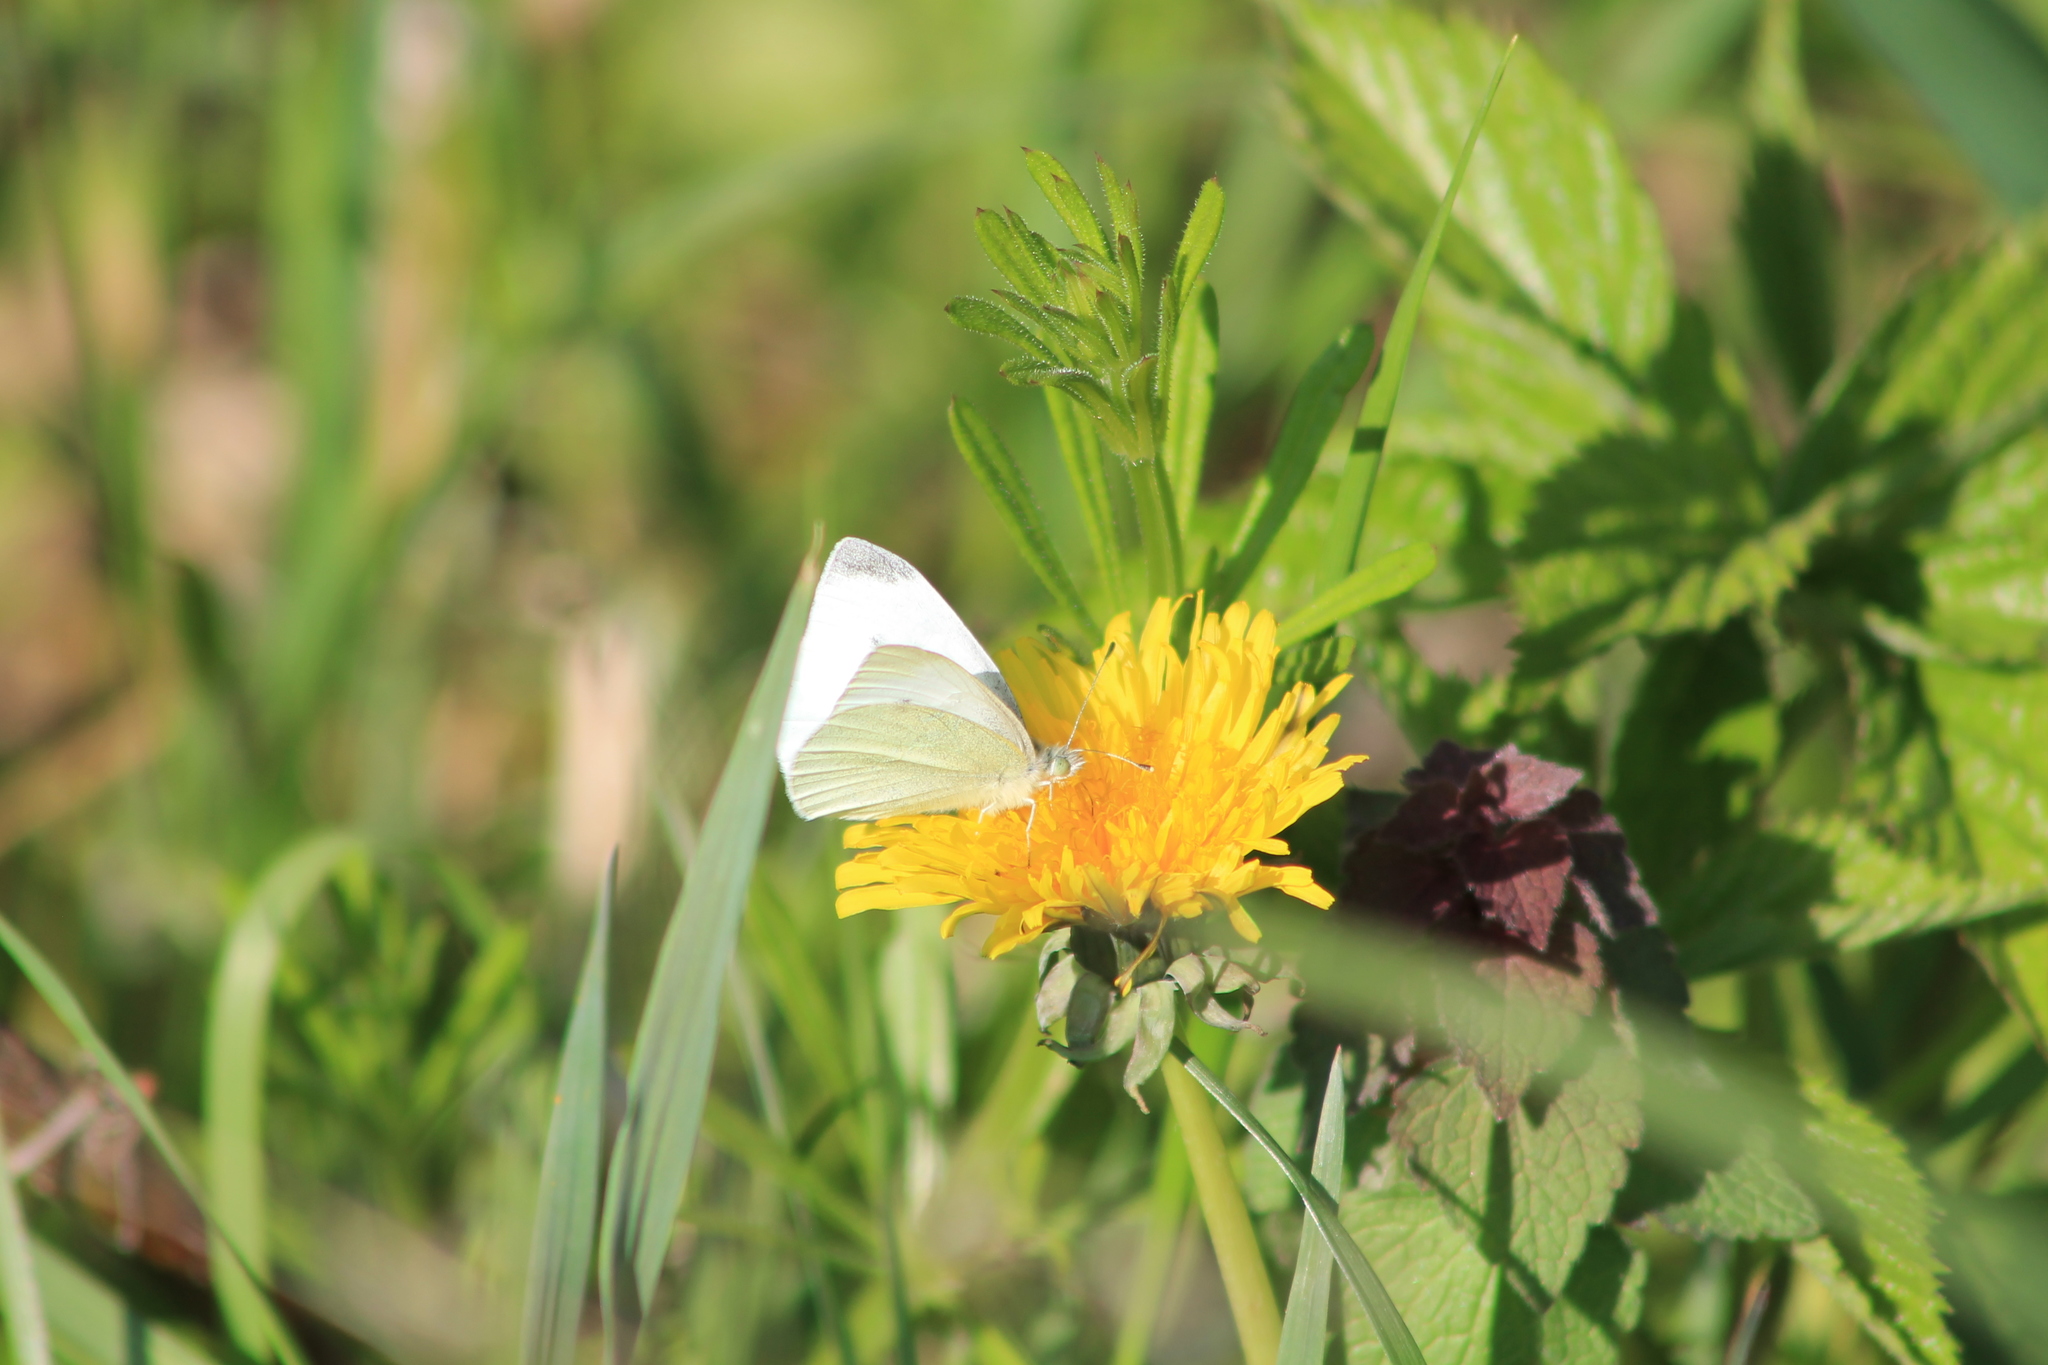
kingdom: Animalia
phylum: Arthropoda
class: Insecta
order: Lepidoptera
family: Pieridae
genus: Pieris
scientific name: Pieris rapae
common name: Small white
